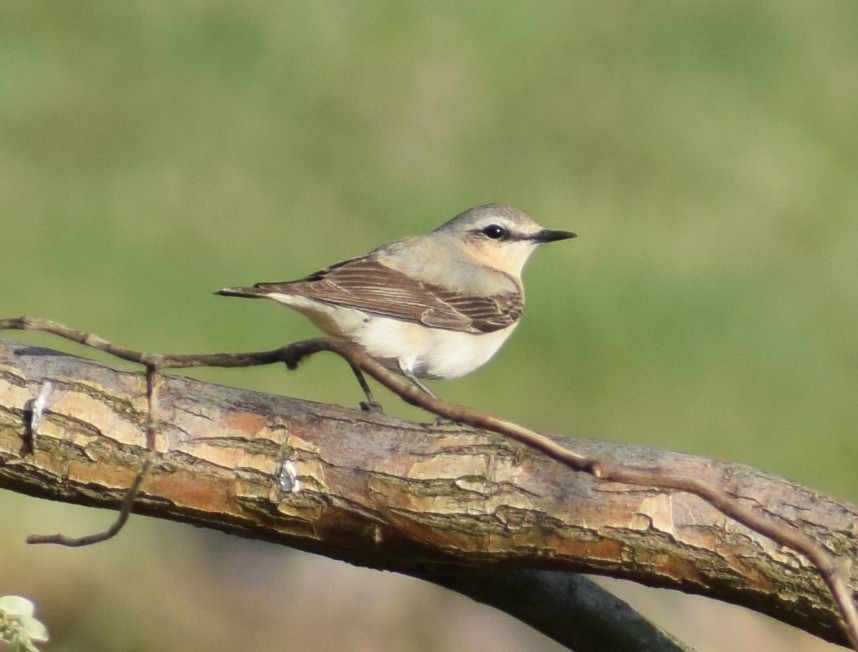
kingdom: Animalia
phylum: Chordata
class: Aves
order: Passeriformes
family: Muscicapidae
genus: Oenanthe
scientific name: Oenanthe oenanthe
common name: Northern wheatear
